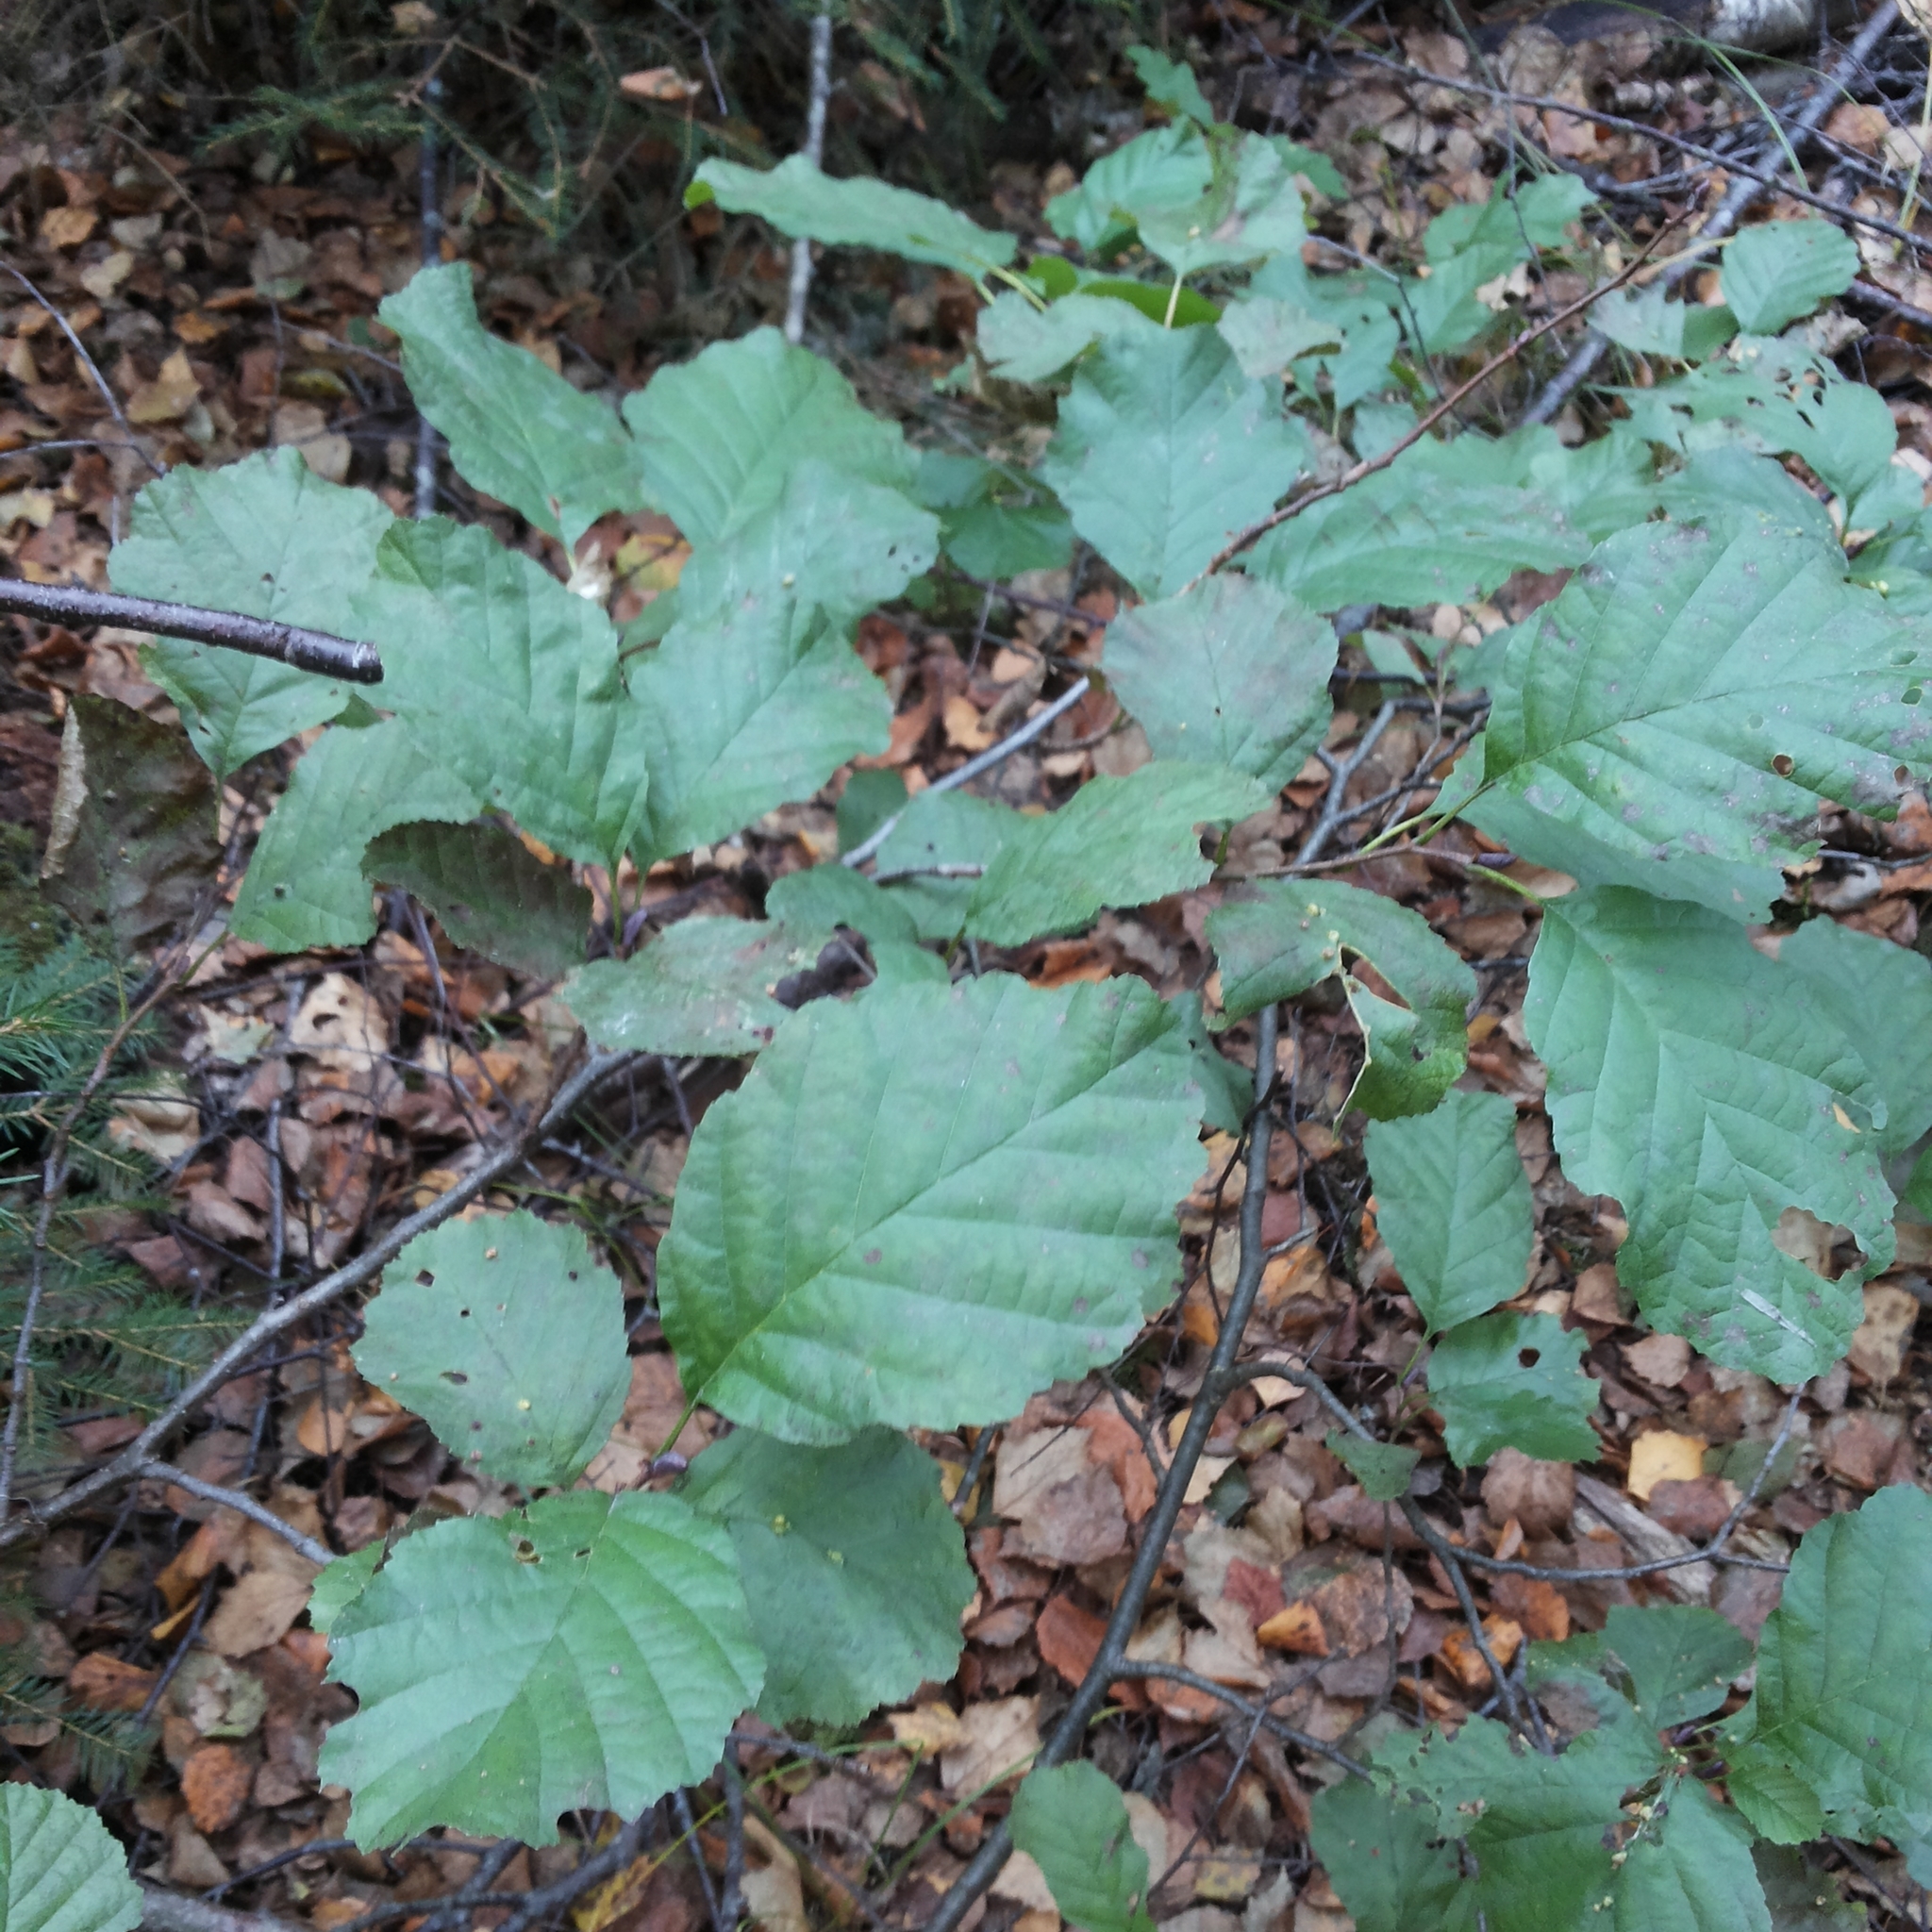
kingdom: Plantae
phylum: Tracheophyta
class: Magnoliopsida
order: Fagales
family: Betulaceae
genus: Alnus
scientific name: Alnus glutinosa
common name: Black alder
